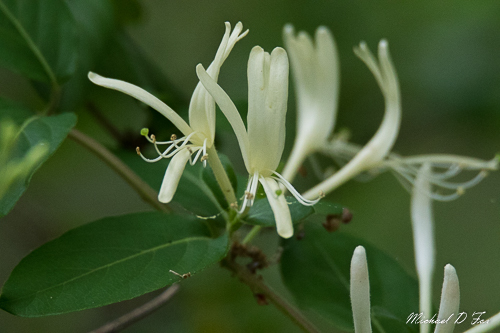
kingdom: Plantae
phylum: Tracheophyta
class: Magnoliopsida
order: Dipsacales
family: Caprifoliaceae
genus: Lonicera
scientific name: Lonicera japonica
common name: Japanese honeysuckle
